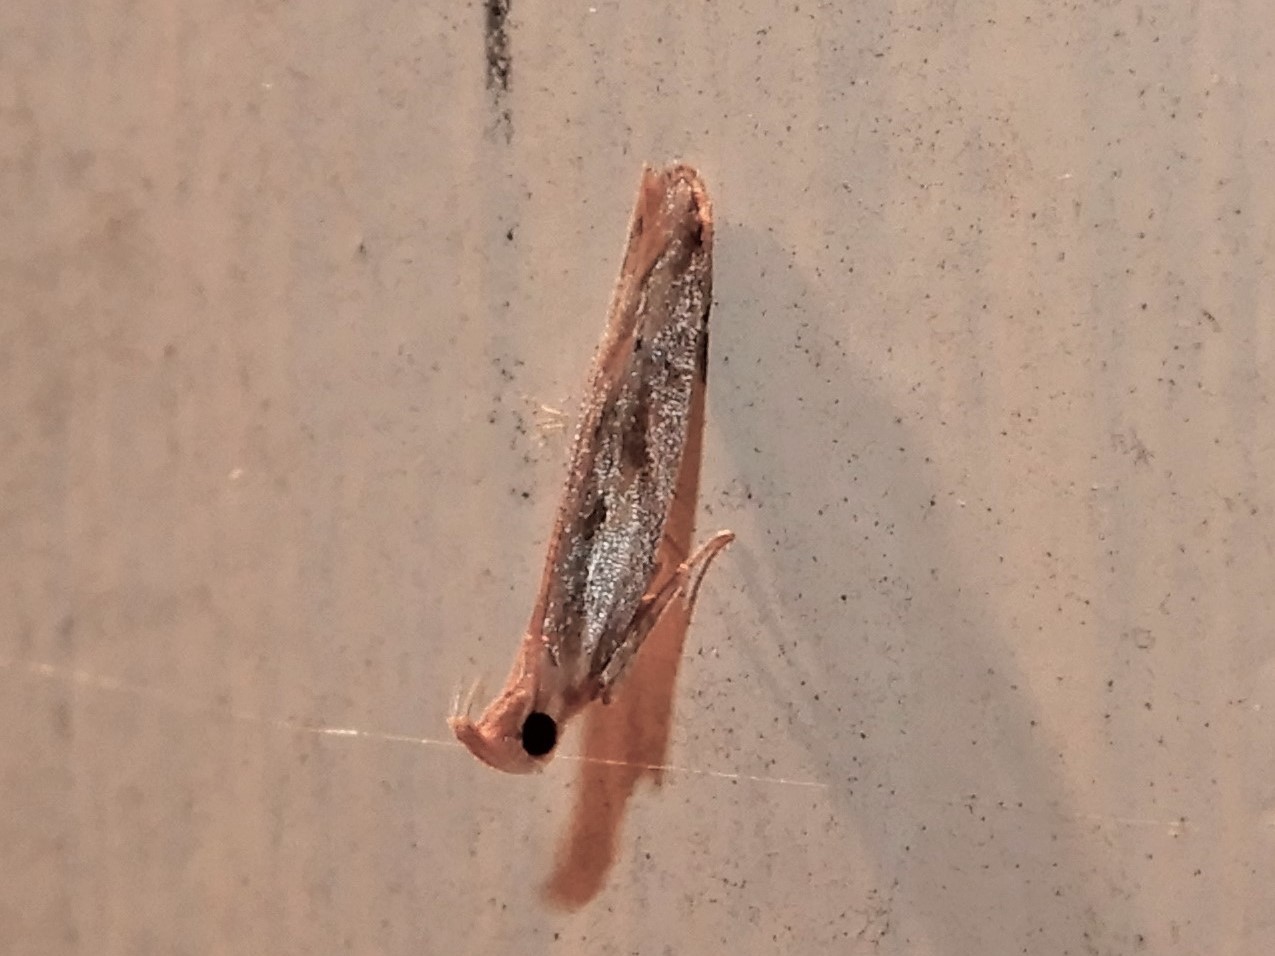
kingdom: Animalia
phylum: Arthropoda
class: Insecta
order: Lepidoptera
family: Depressariidae
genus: Eutorna
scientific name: Eutorna symmorpha
